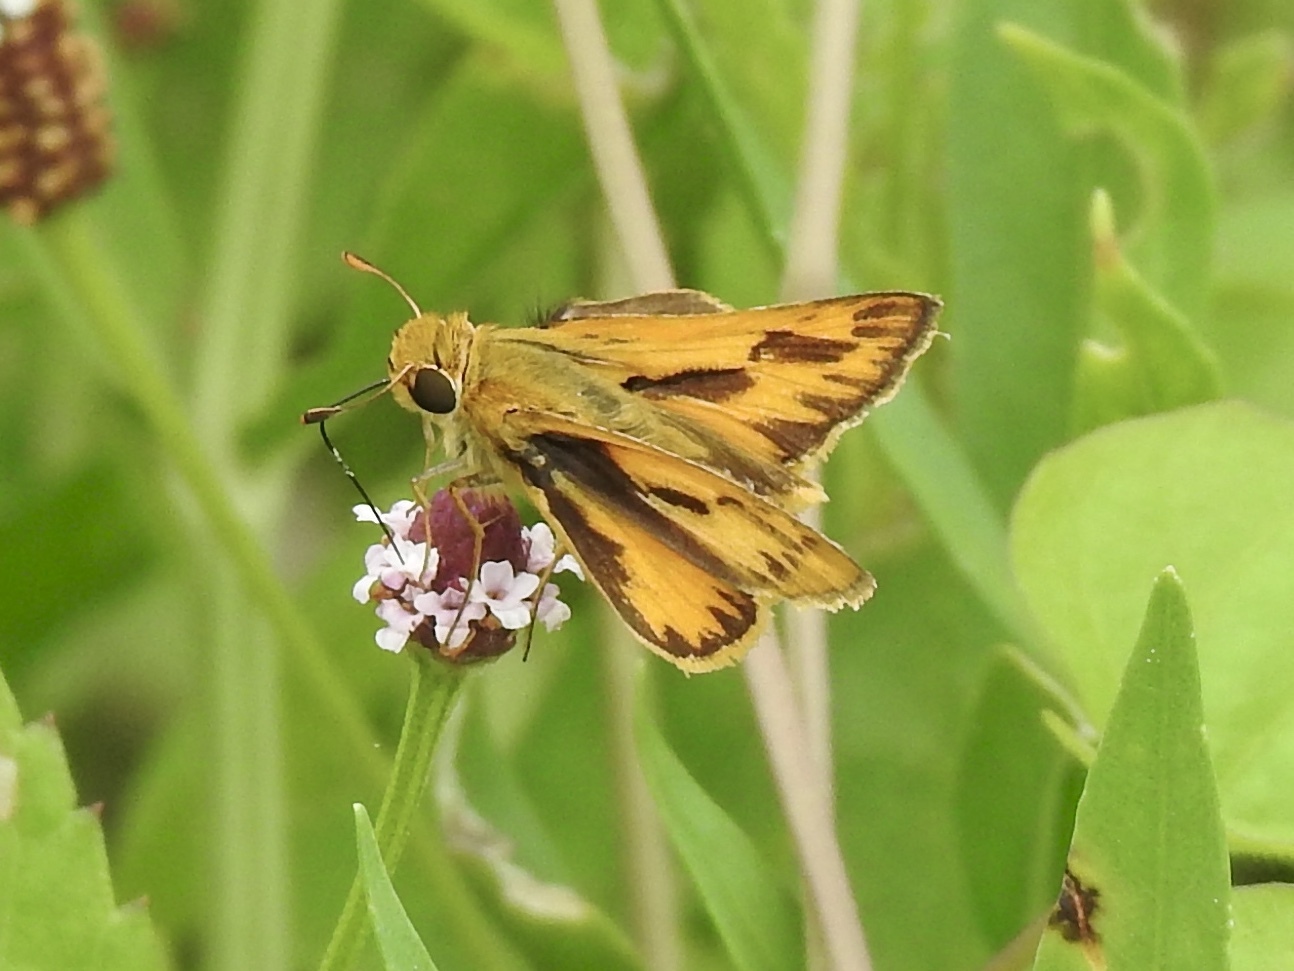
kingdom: Animalia
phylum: Arthropoda
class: Insecta
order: Lepidoptera
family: Hesperiidae
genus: Hylephila
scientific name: Hylephila phyleus
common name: Fiery skipper
